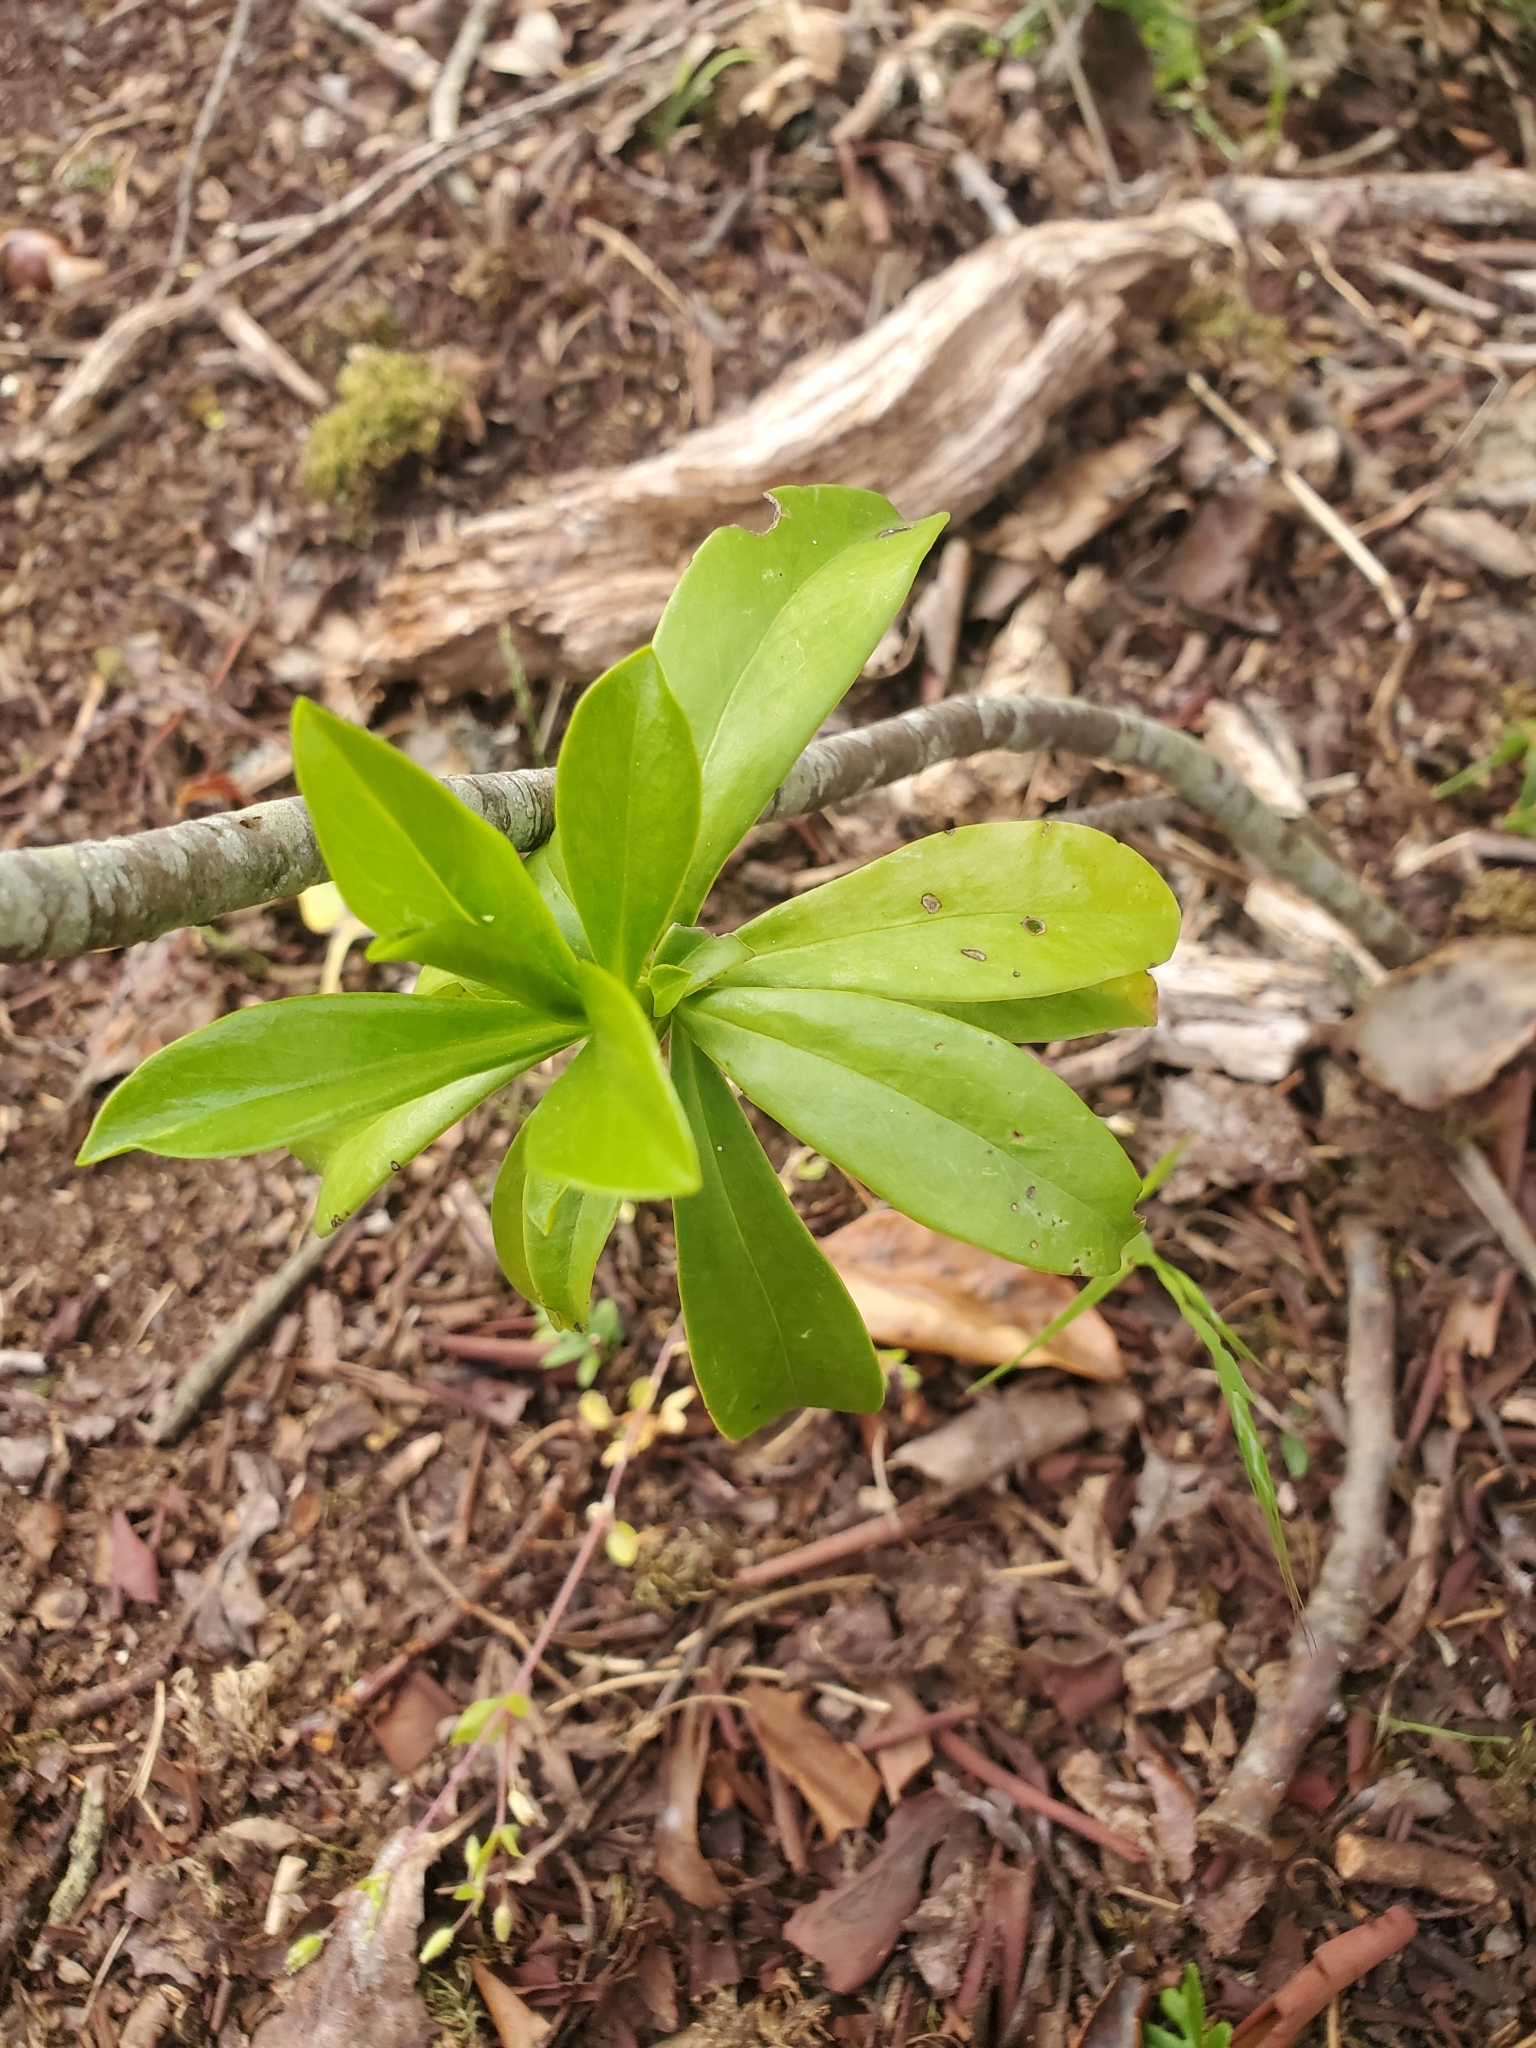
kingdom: Plantae
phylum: Tracheophyta
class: Magnoliopsida
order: Malvales
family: Thymelaeaceae
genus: Daphne
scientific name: Daphne laureola
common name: Spurge-laurel
